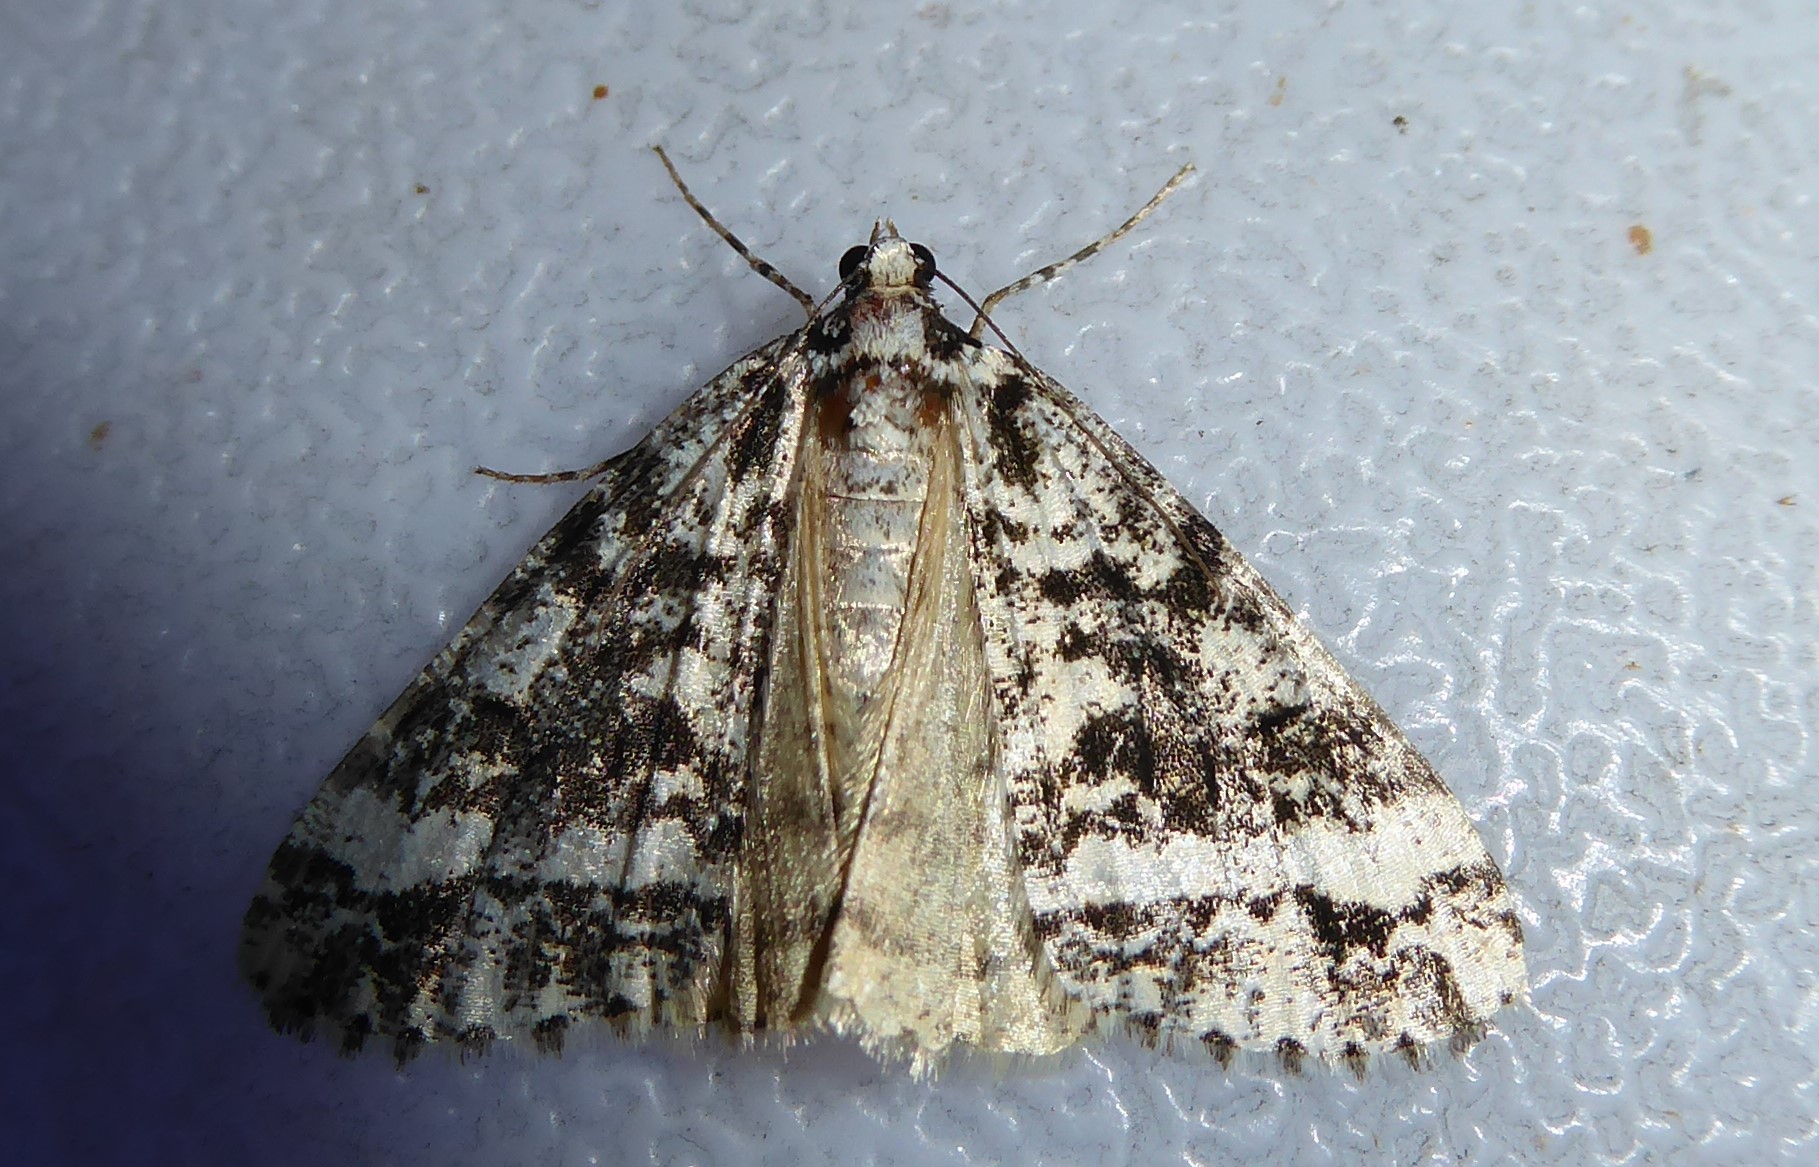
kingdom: Animalia
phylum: Arthropoda
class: Insecta
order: Lepidoptera
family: Geometridae
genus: Pseudocoremia
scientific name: Pseudocoremia leucelaea
